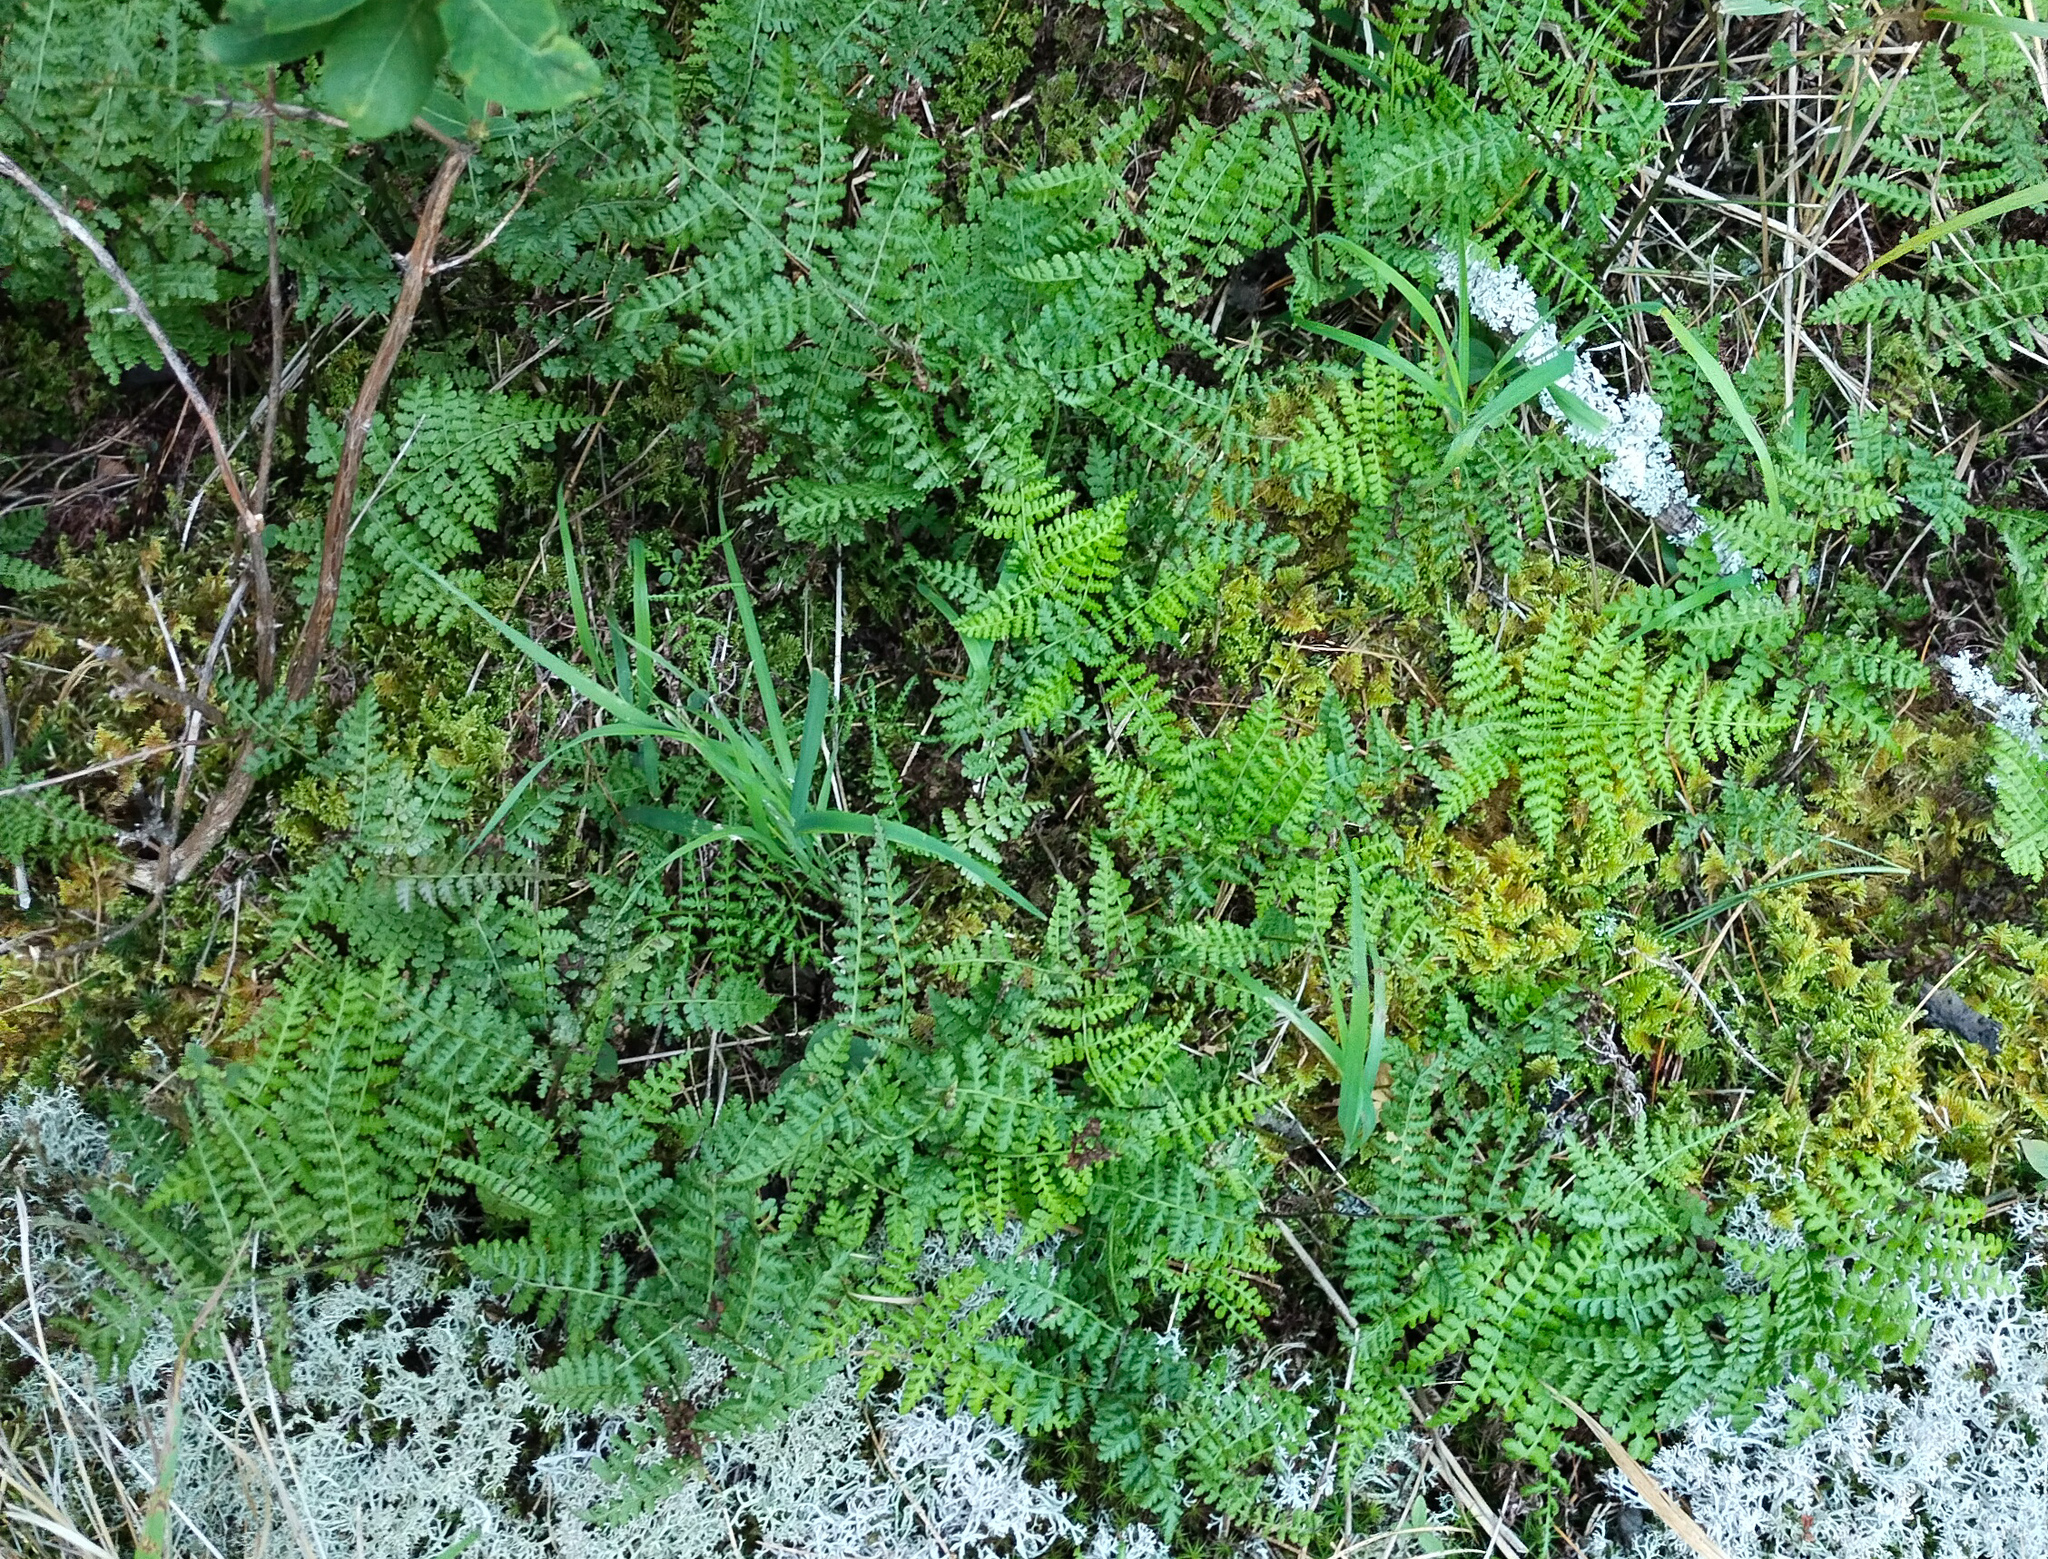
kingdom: Plantae
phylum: Tracheophyta
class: Polypodiopsida
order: Polypodiales
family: Athyriaceae
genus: Diplazium
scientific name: Diplazium sibiricum
